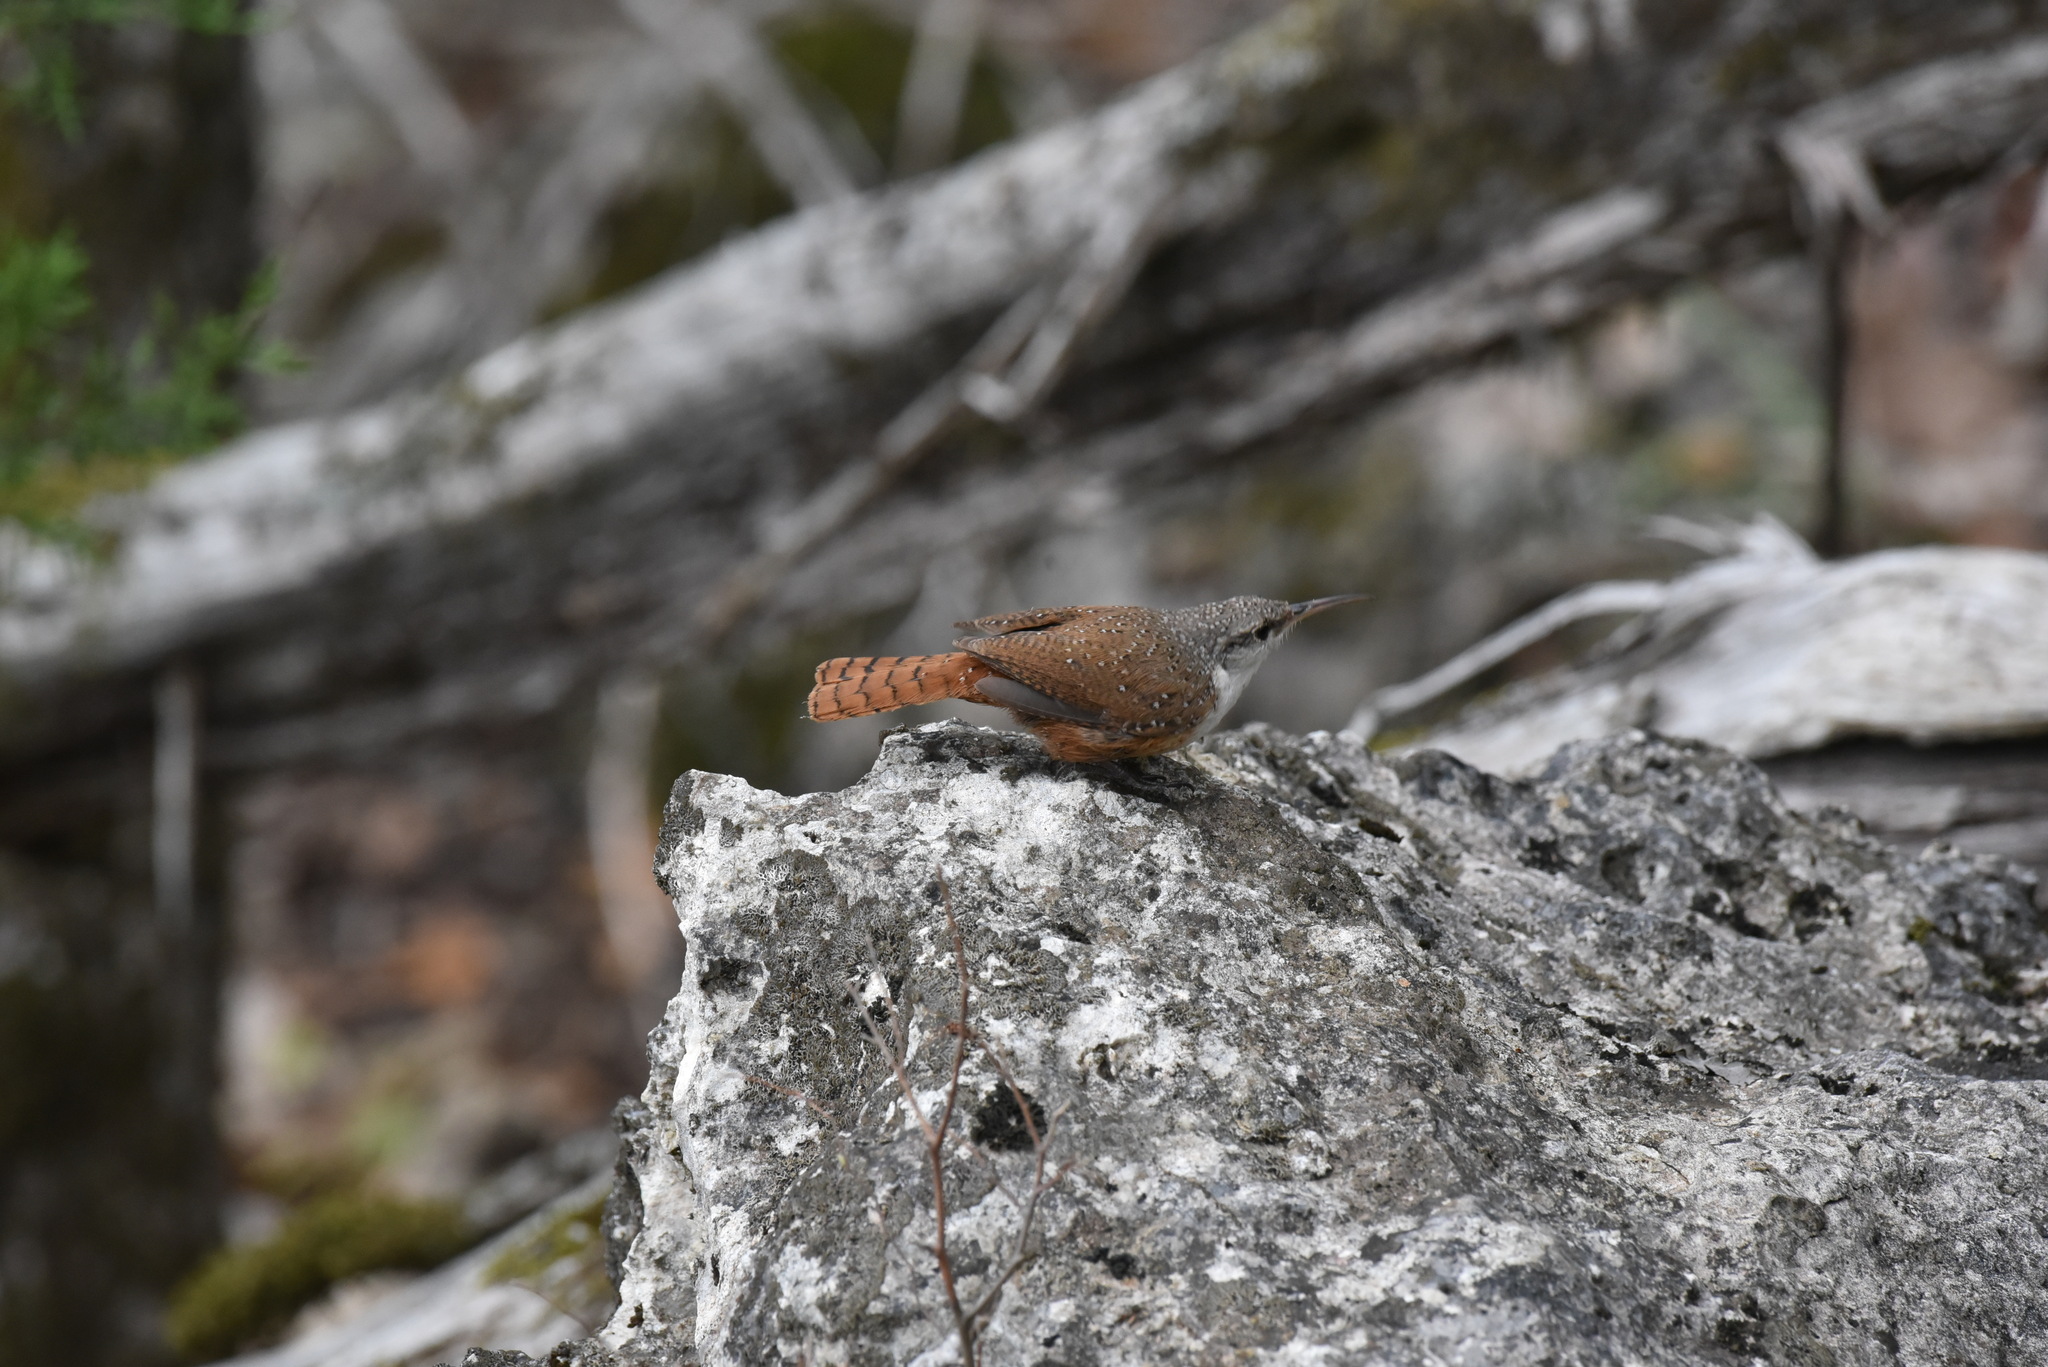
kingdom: Animalia
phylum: Chordata
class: Aves
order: Passeriformes
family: Troglodytidae
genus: Catherpes
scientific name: Catherpes mexicanus
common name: Canyon wren
